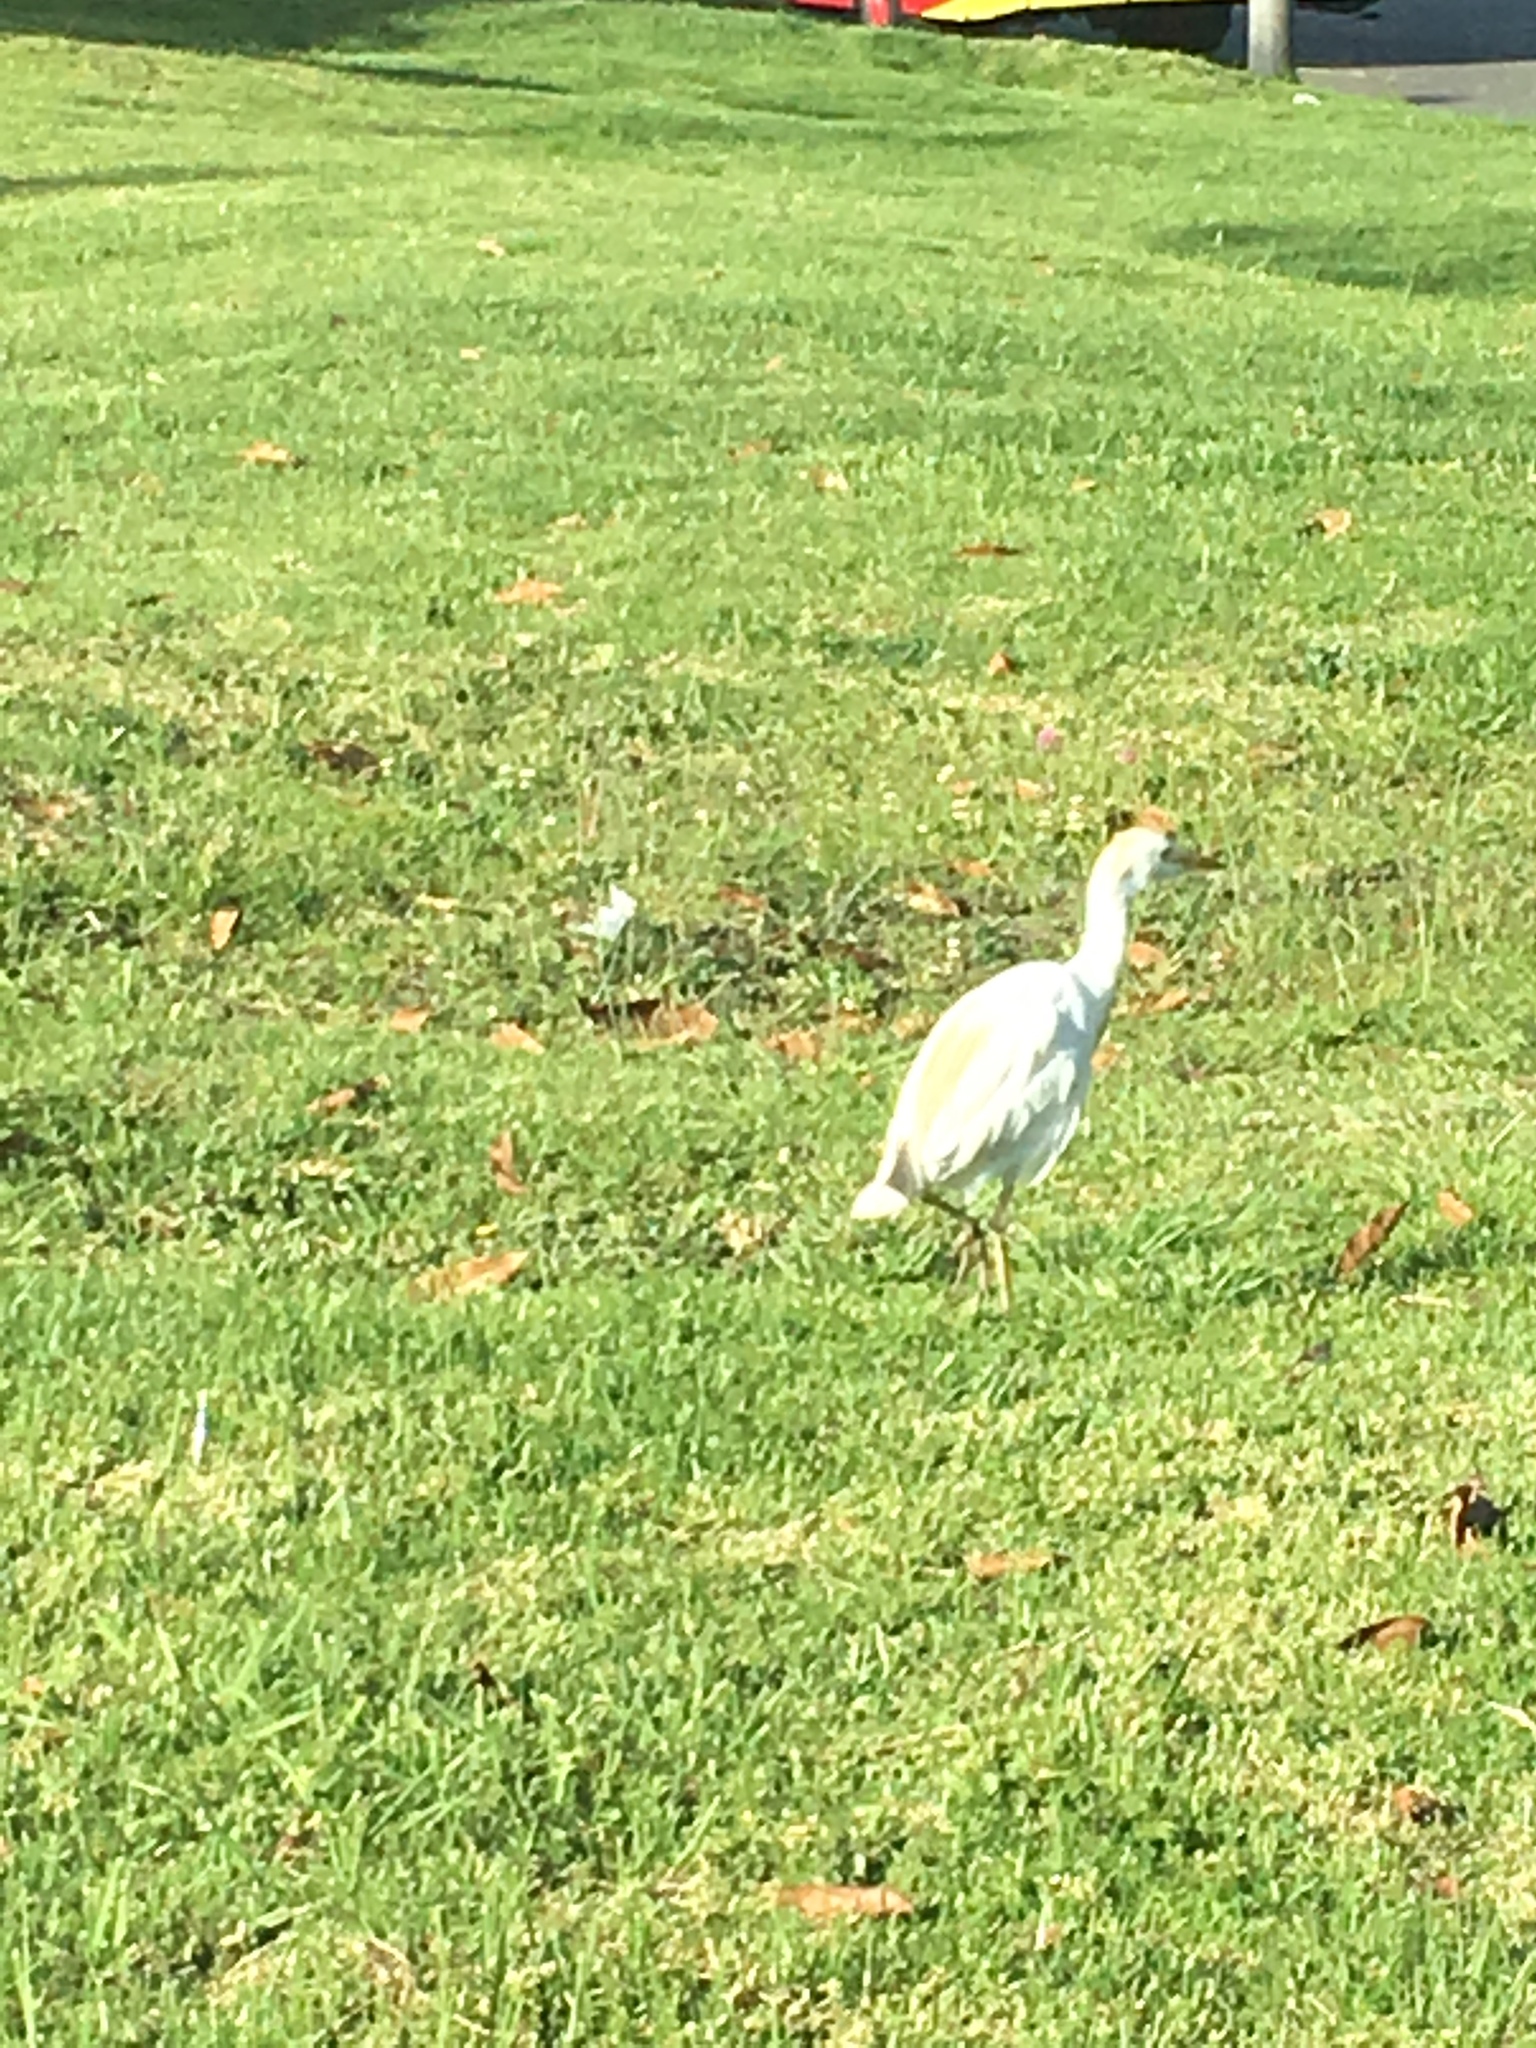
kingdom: Animalia
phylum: Chordata
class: Aves
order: Pelecaniformes
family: Ardeidae
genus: Bubulcus
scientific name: Bubulcus ibis
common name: Cattle egret
